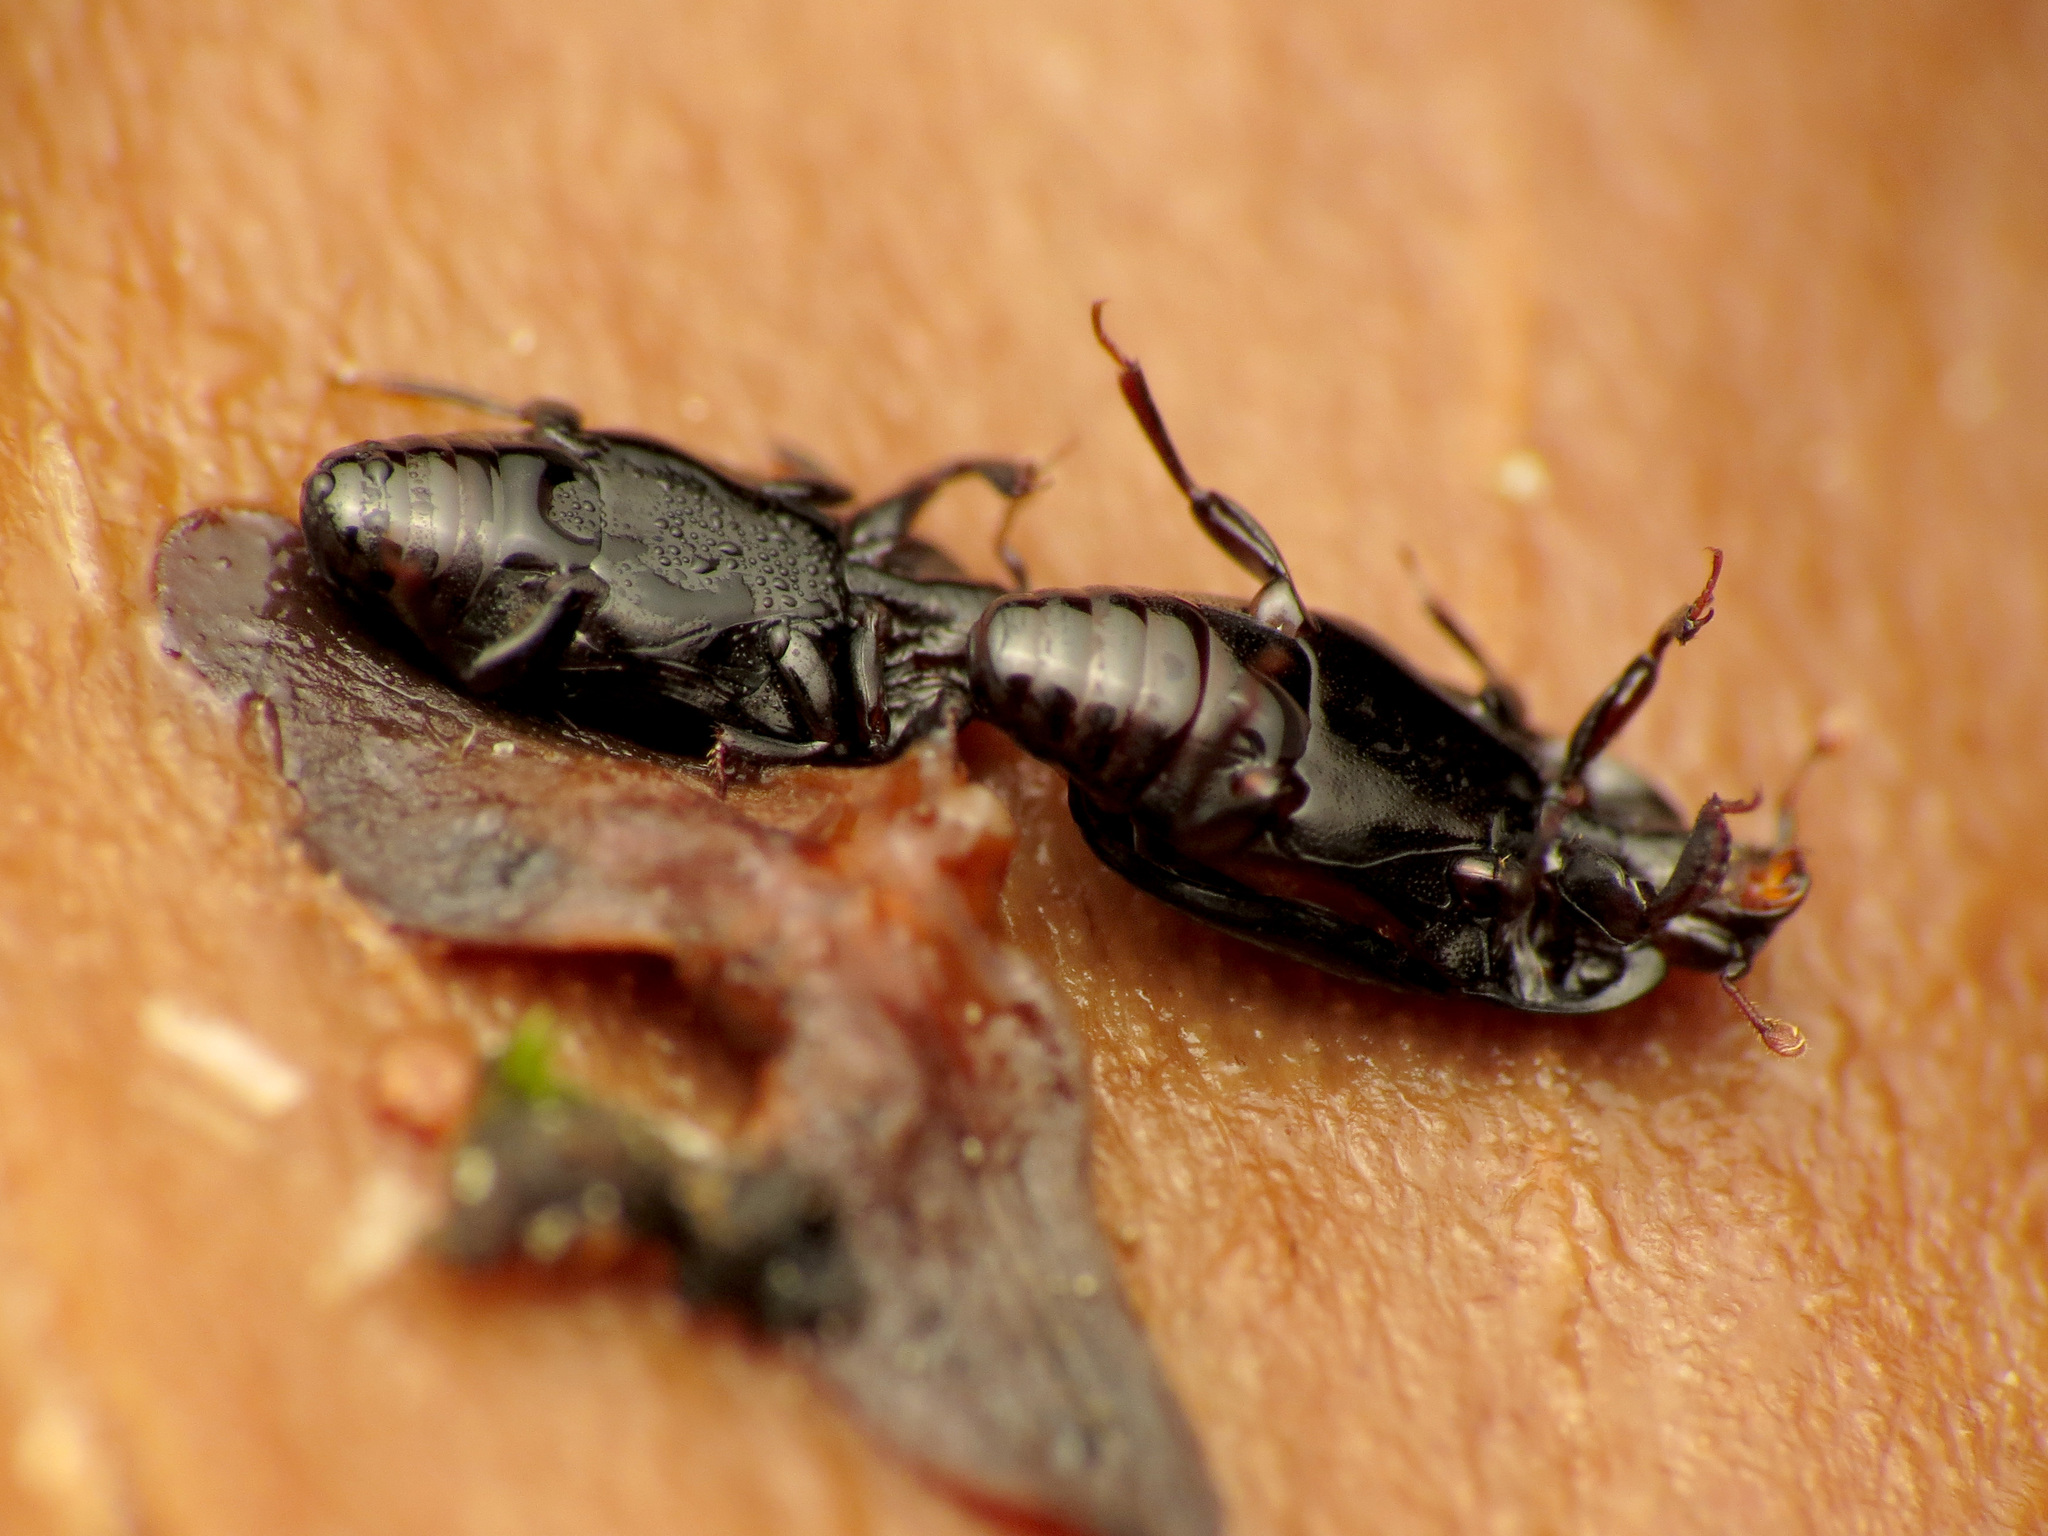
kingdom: Animalia
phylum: Arthropoda
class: Insecta
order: Coleoptera
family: Histeridae
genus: Platylomalus
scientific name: Platylomalus aequalis
